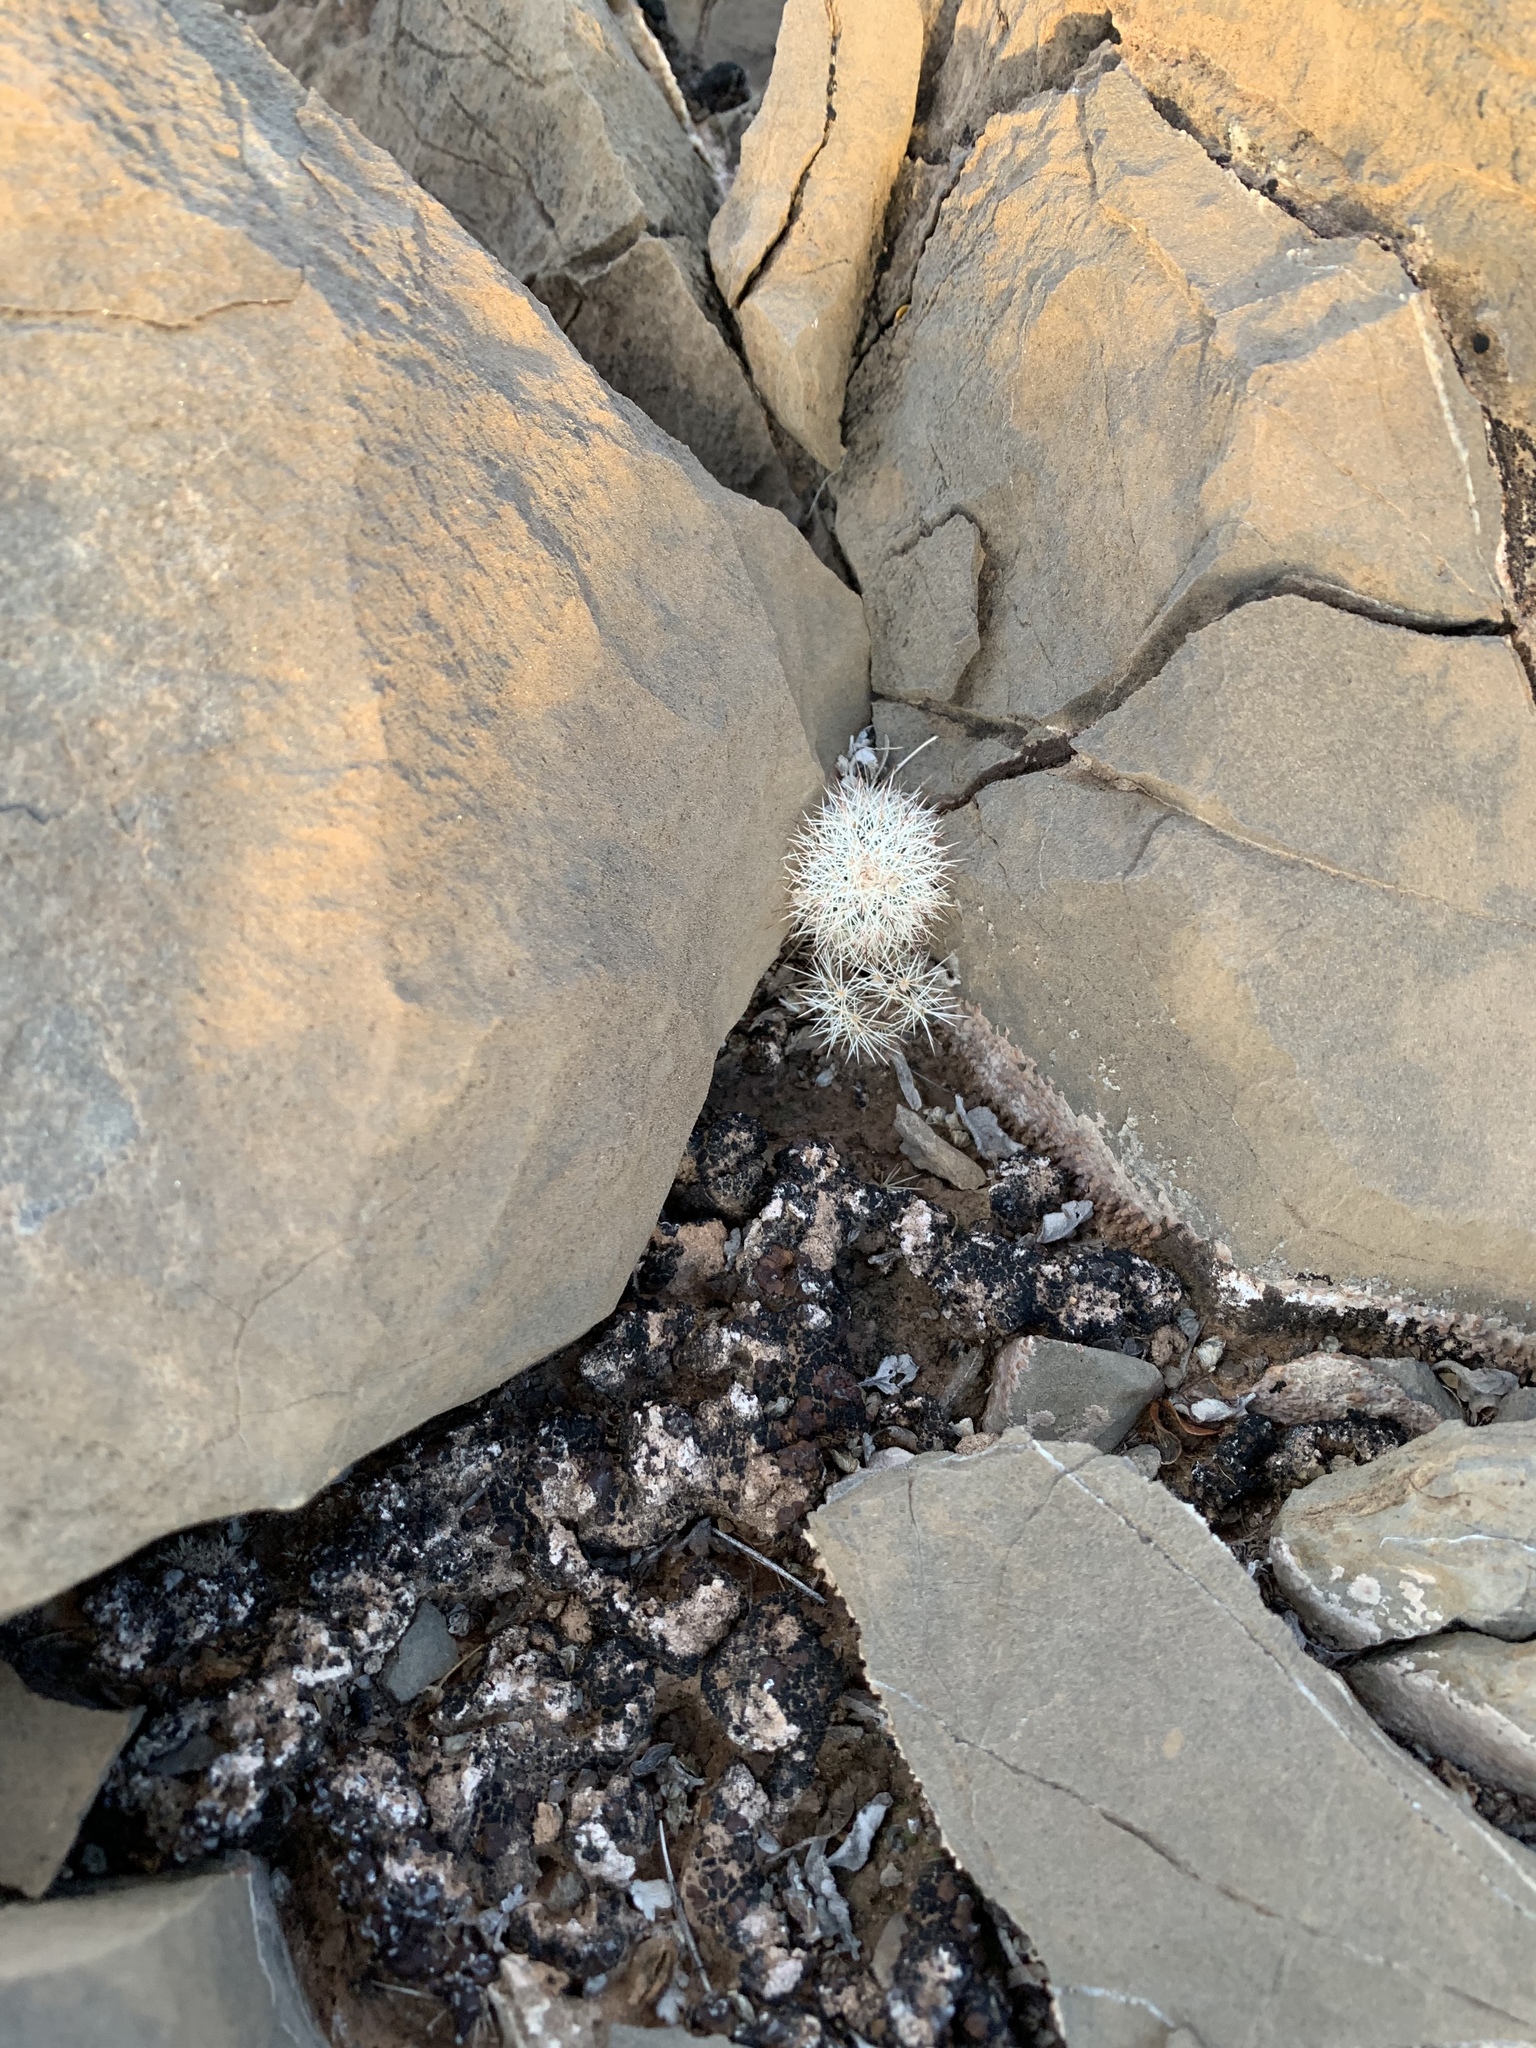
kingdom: Plantae
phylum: Tracheophyta
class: Magnoliopsida
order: Caryophyllales
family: Cactaceae
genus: Echinocereus
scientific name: Echinocereus dasyacanthus
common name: Spiny hedgehog cactus
